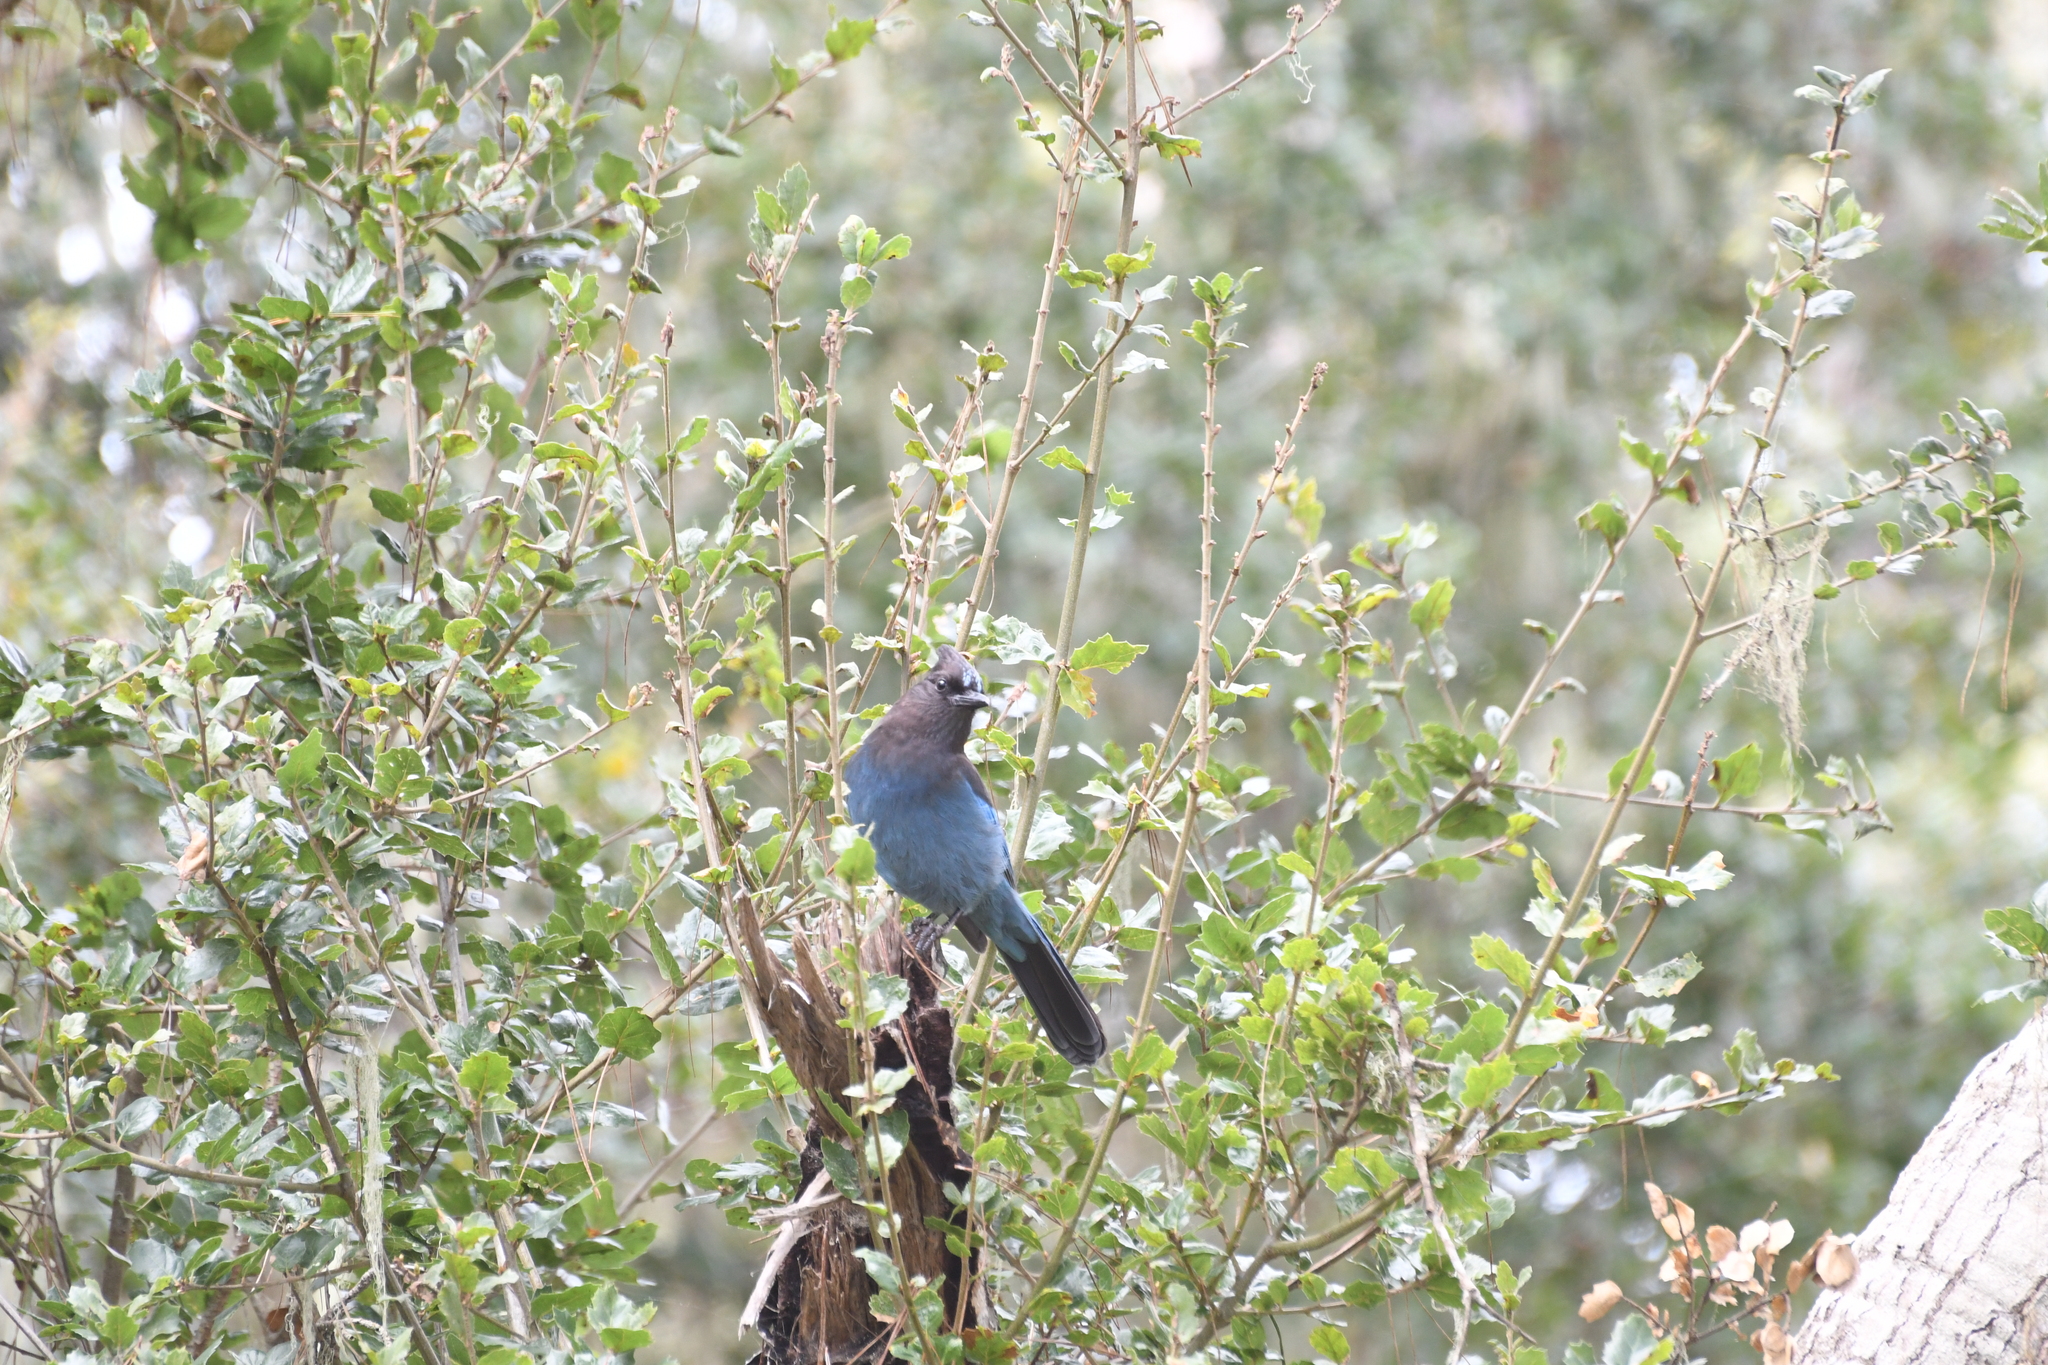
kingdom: Animalia
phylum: Chordata
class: Aves
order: Passeriformes
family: Corvidae
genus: Cyanocitta
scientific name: Cyanocitta stelleri
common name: Steller's jay
